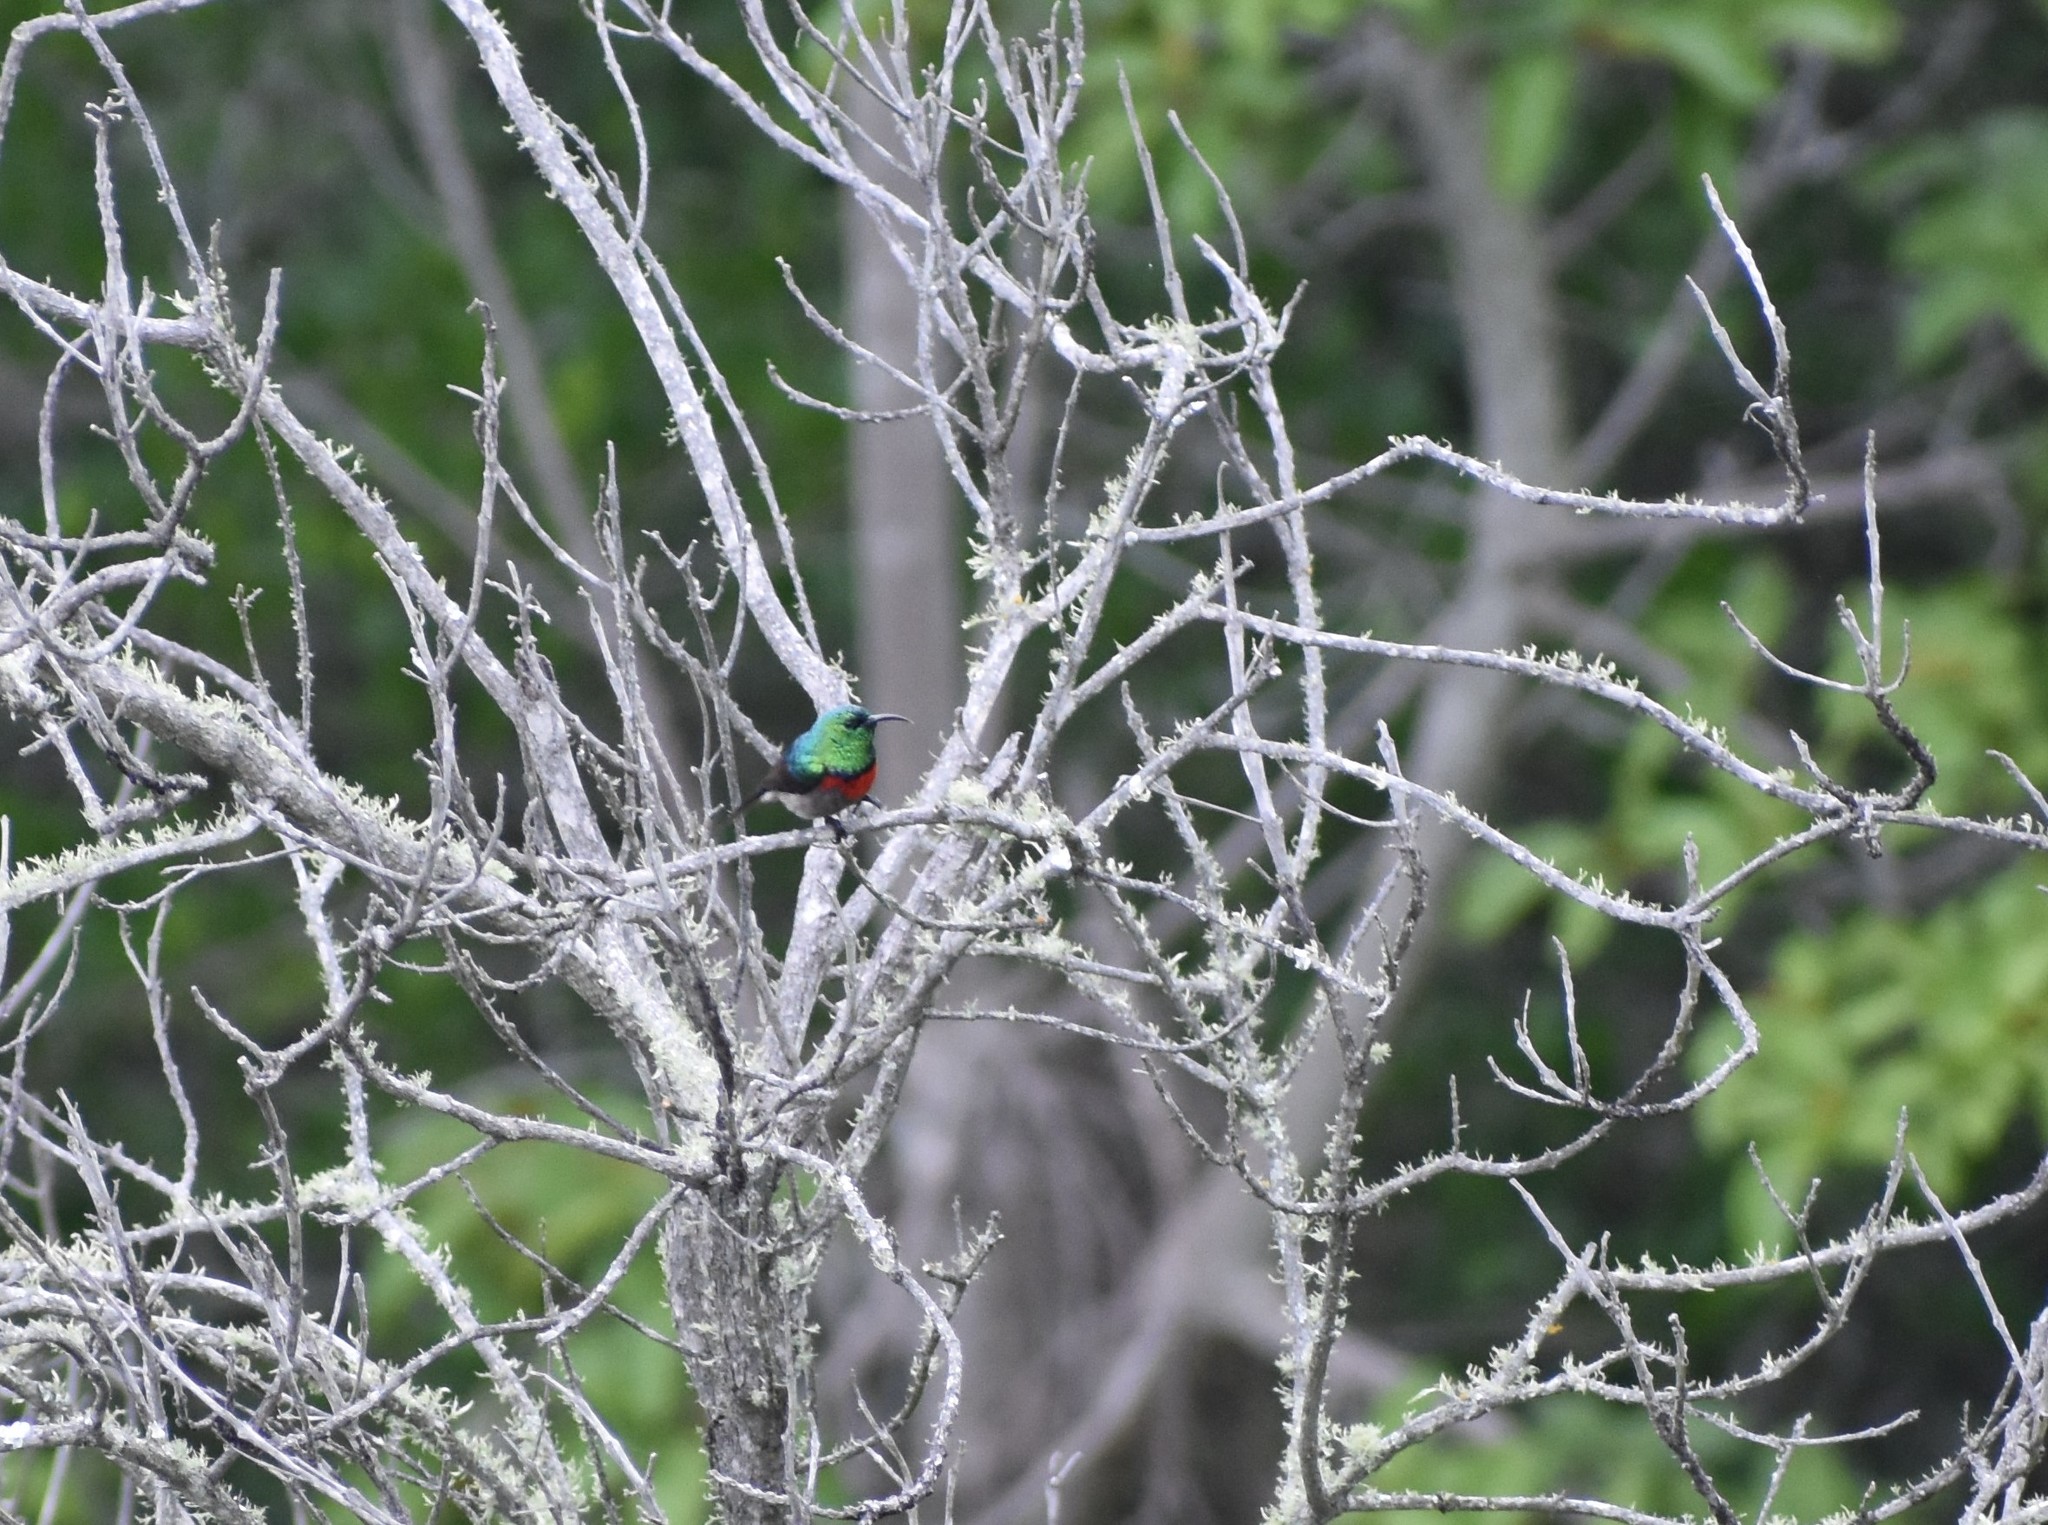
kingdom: Animalia
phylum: Chordata
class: Aves
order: Passeriformes
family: Nectariniidae
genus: Cinnyris
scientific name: Cinnyris chalybeus
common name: Southern double-collared sunbird
